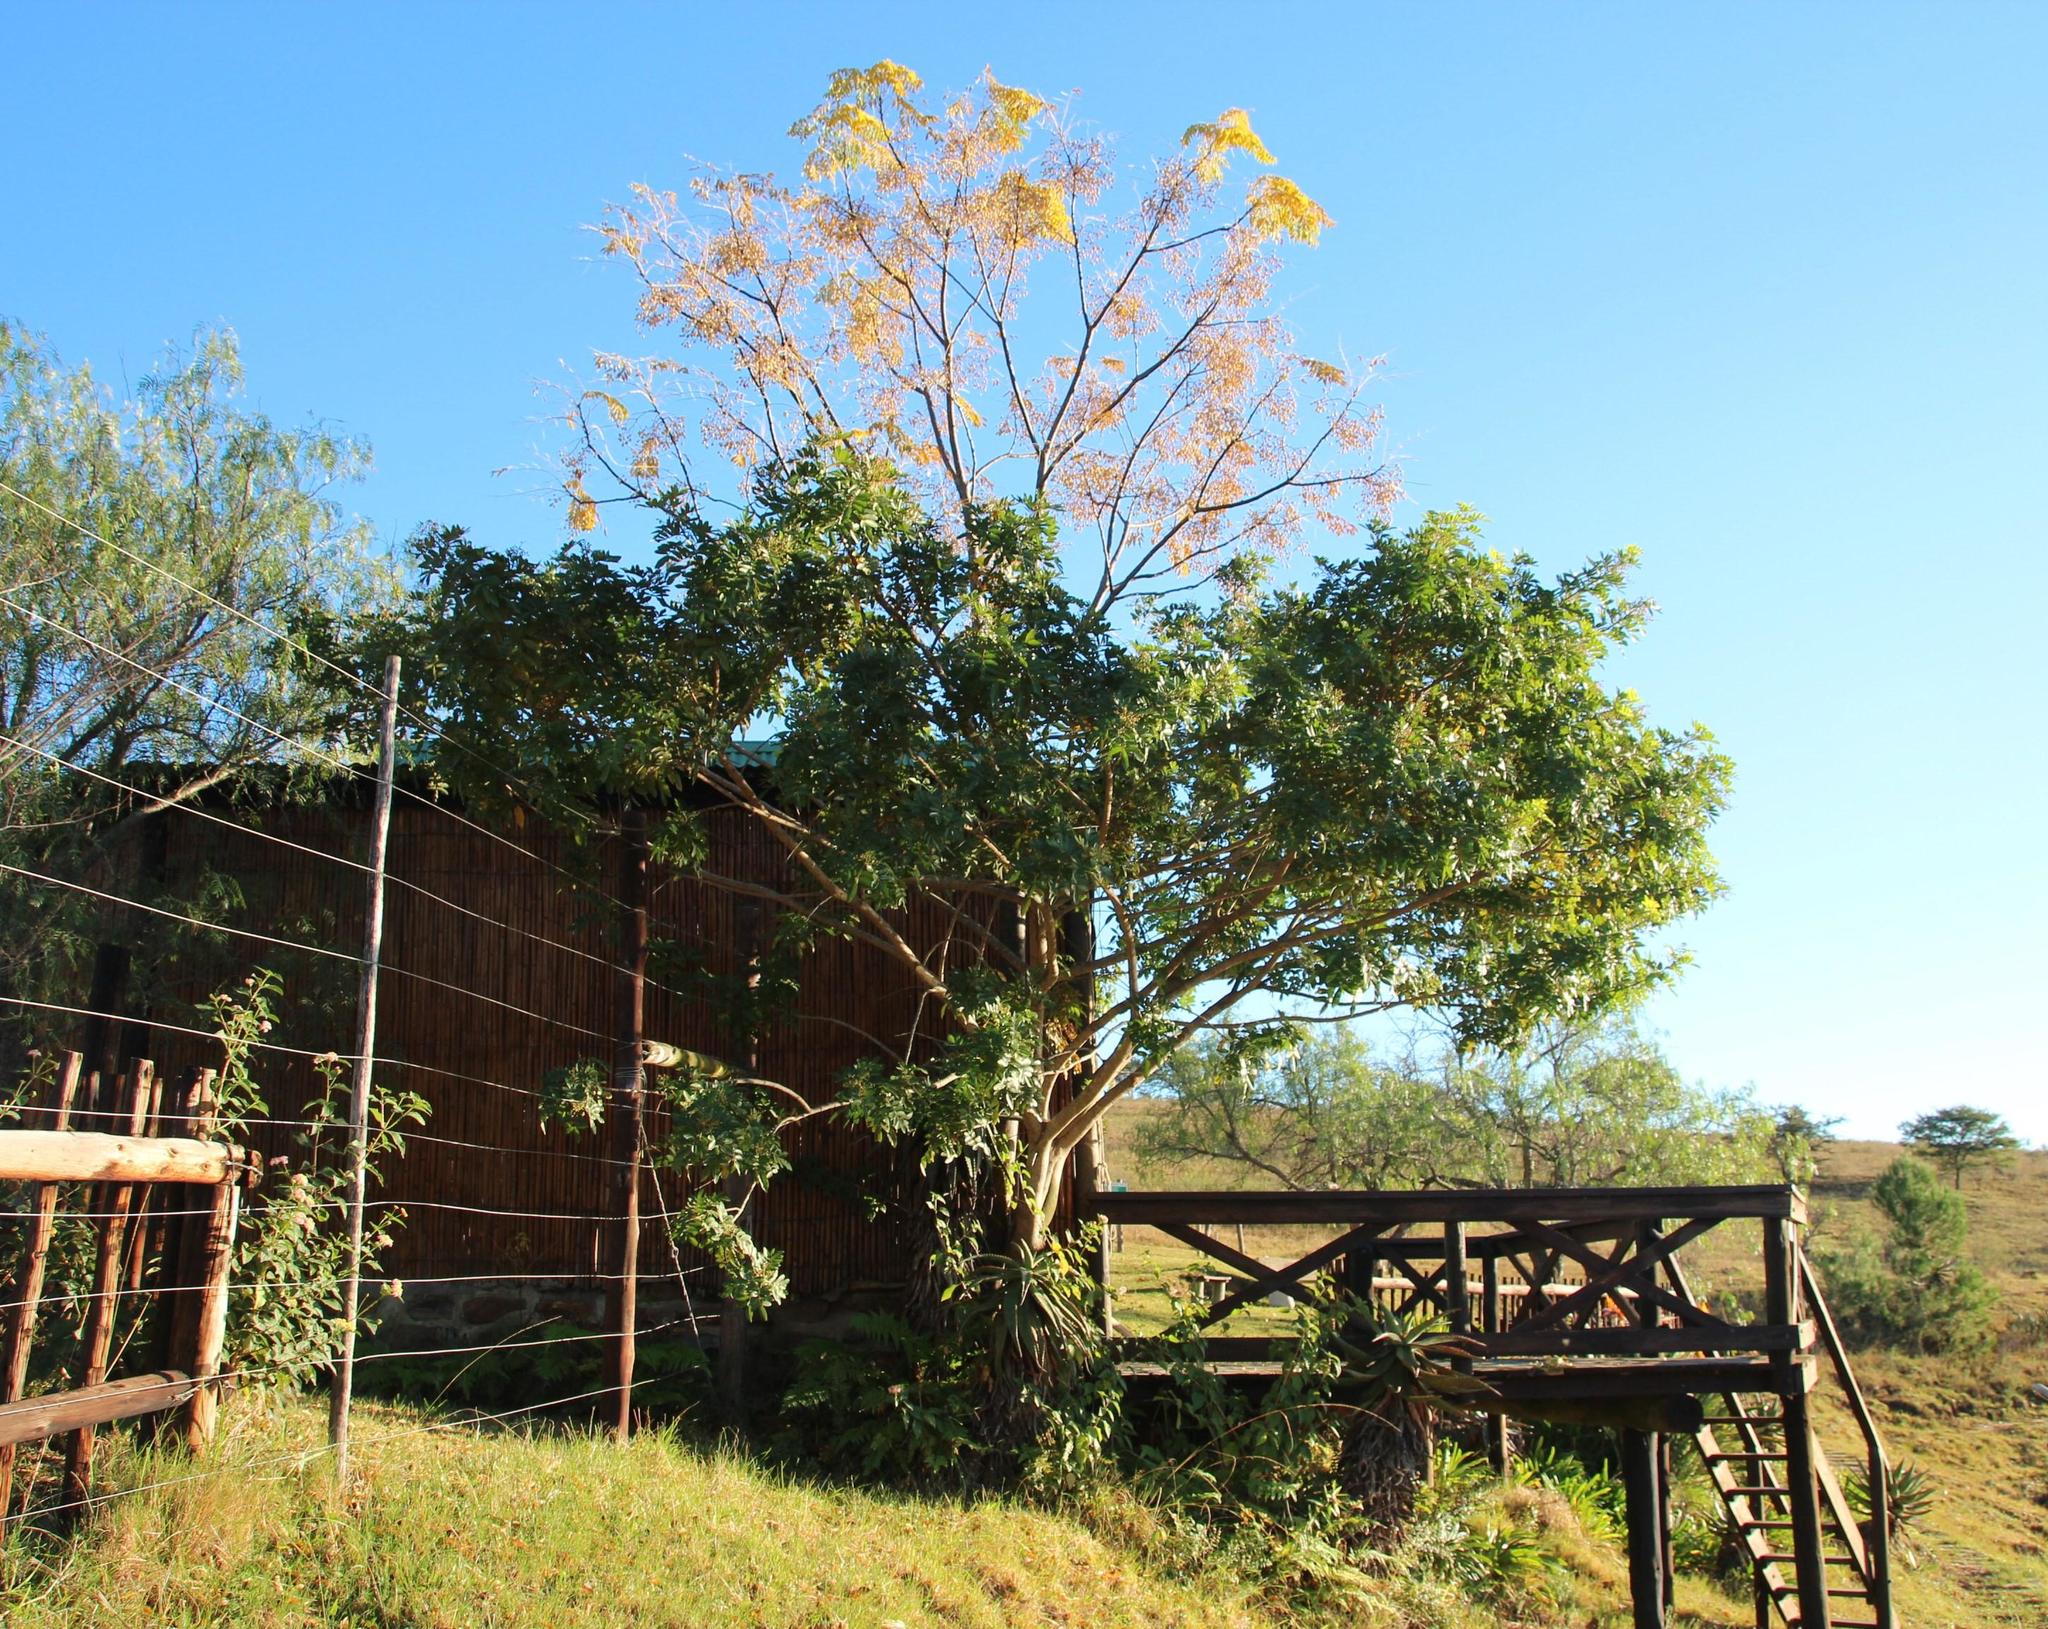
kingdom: Plantae
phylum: Tracheophyta
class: Magnoliopsida
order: Sapindales
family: Anacardiaceae
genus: Schinus
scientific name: Schinus terebinthifolia
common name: Brazilian peppertree
